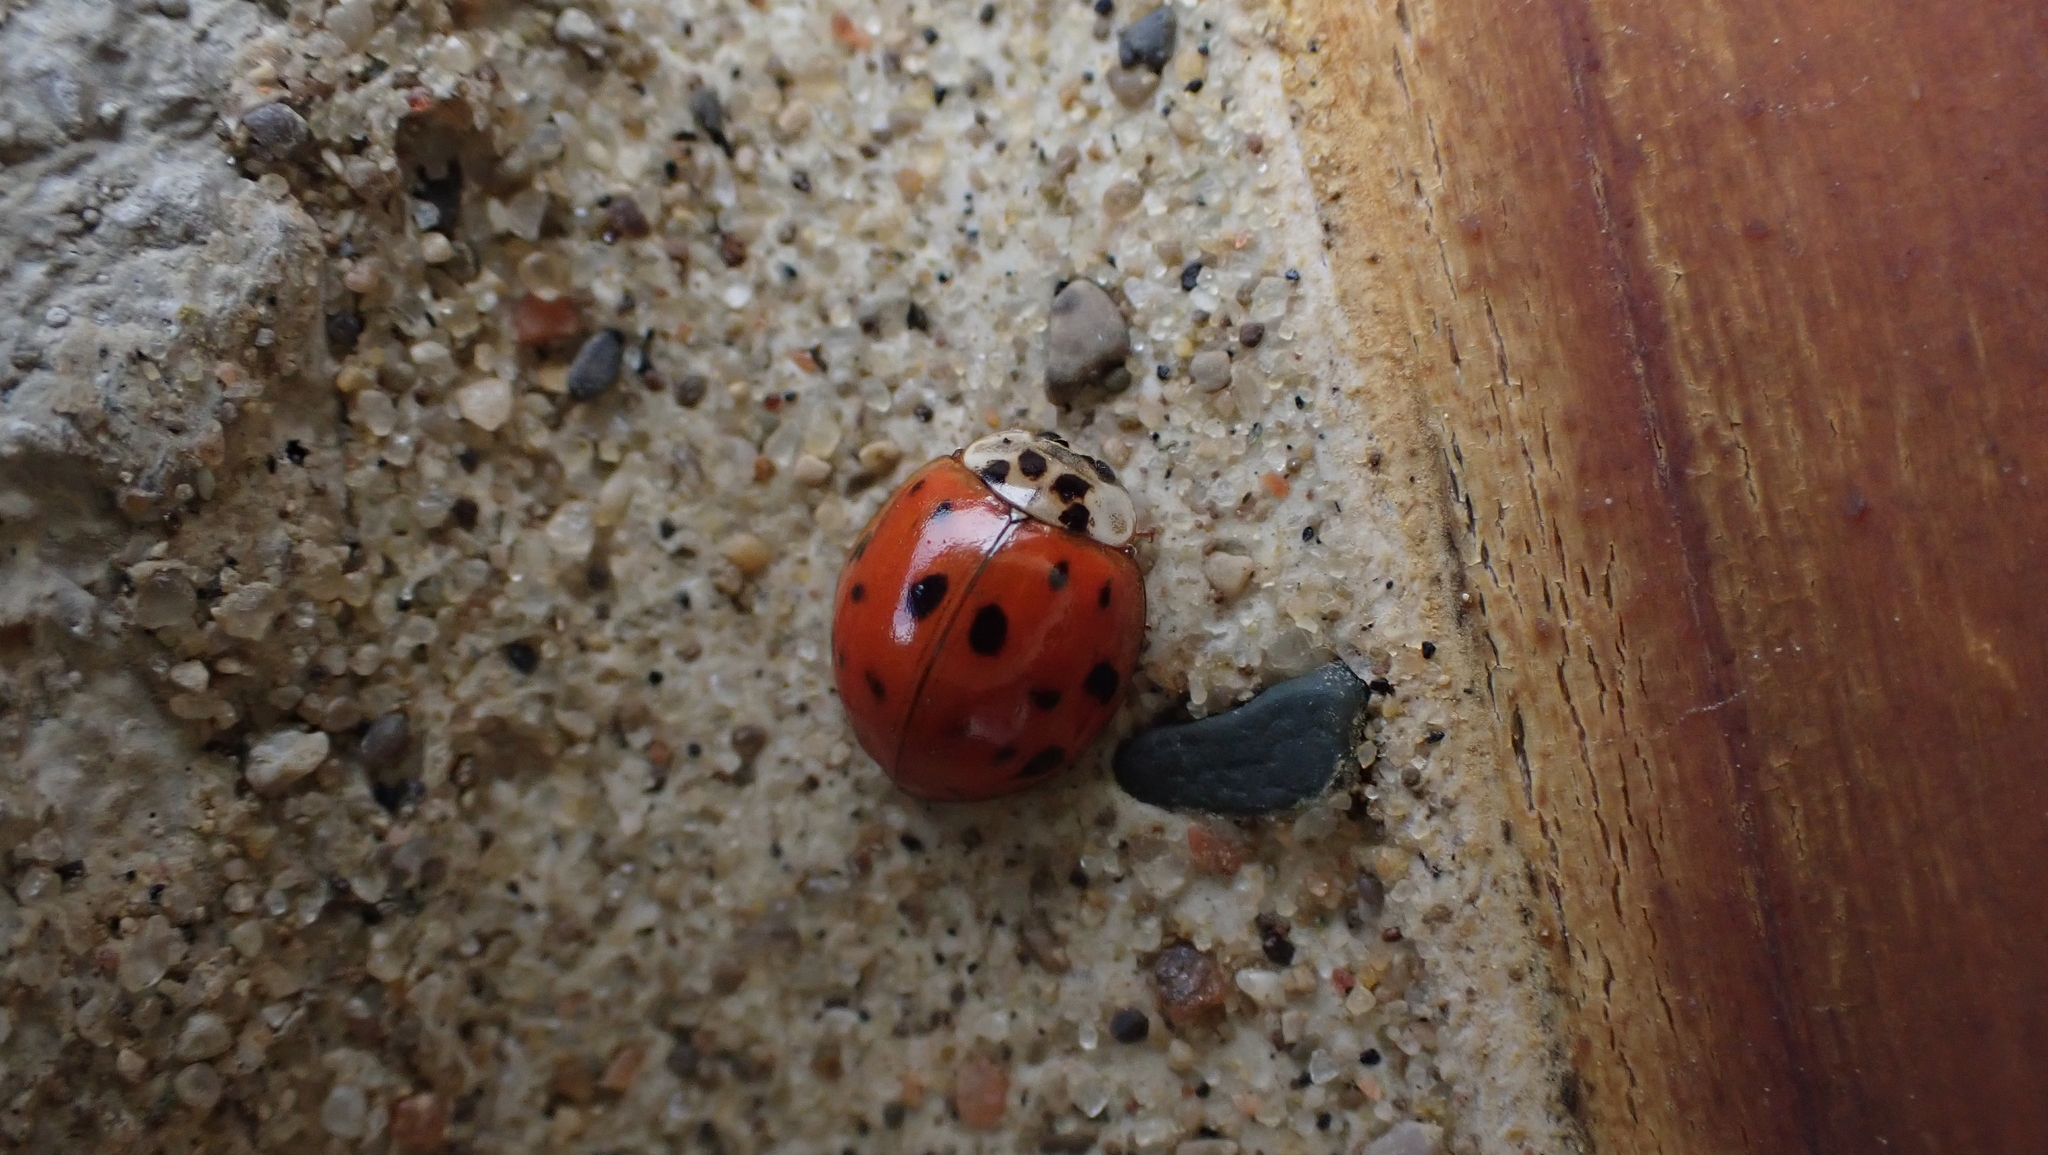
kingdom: Animalia
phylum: Arthropoda
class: Insecta
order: Coleoptera
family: Coccinellidae
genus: Harmonia
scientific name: Harmonia axyridis
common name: Harlequin ladybird
